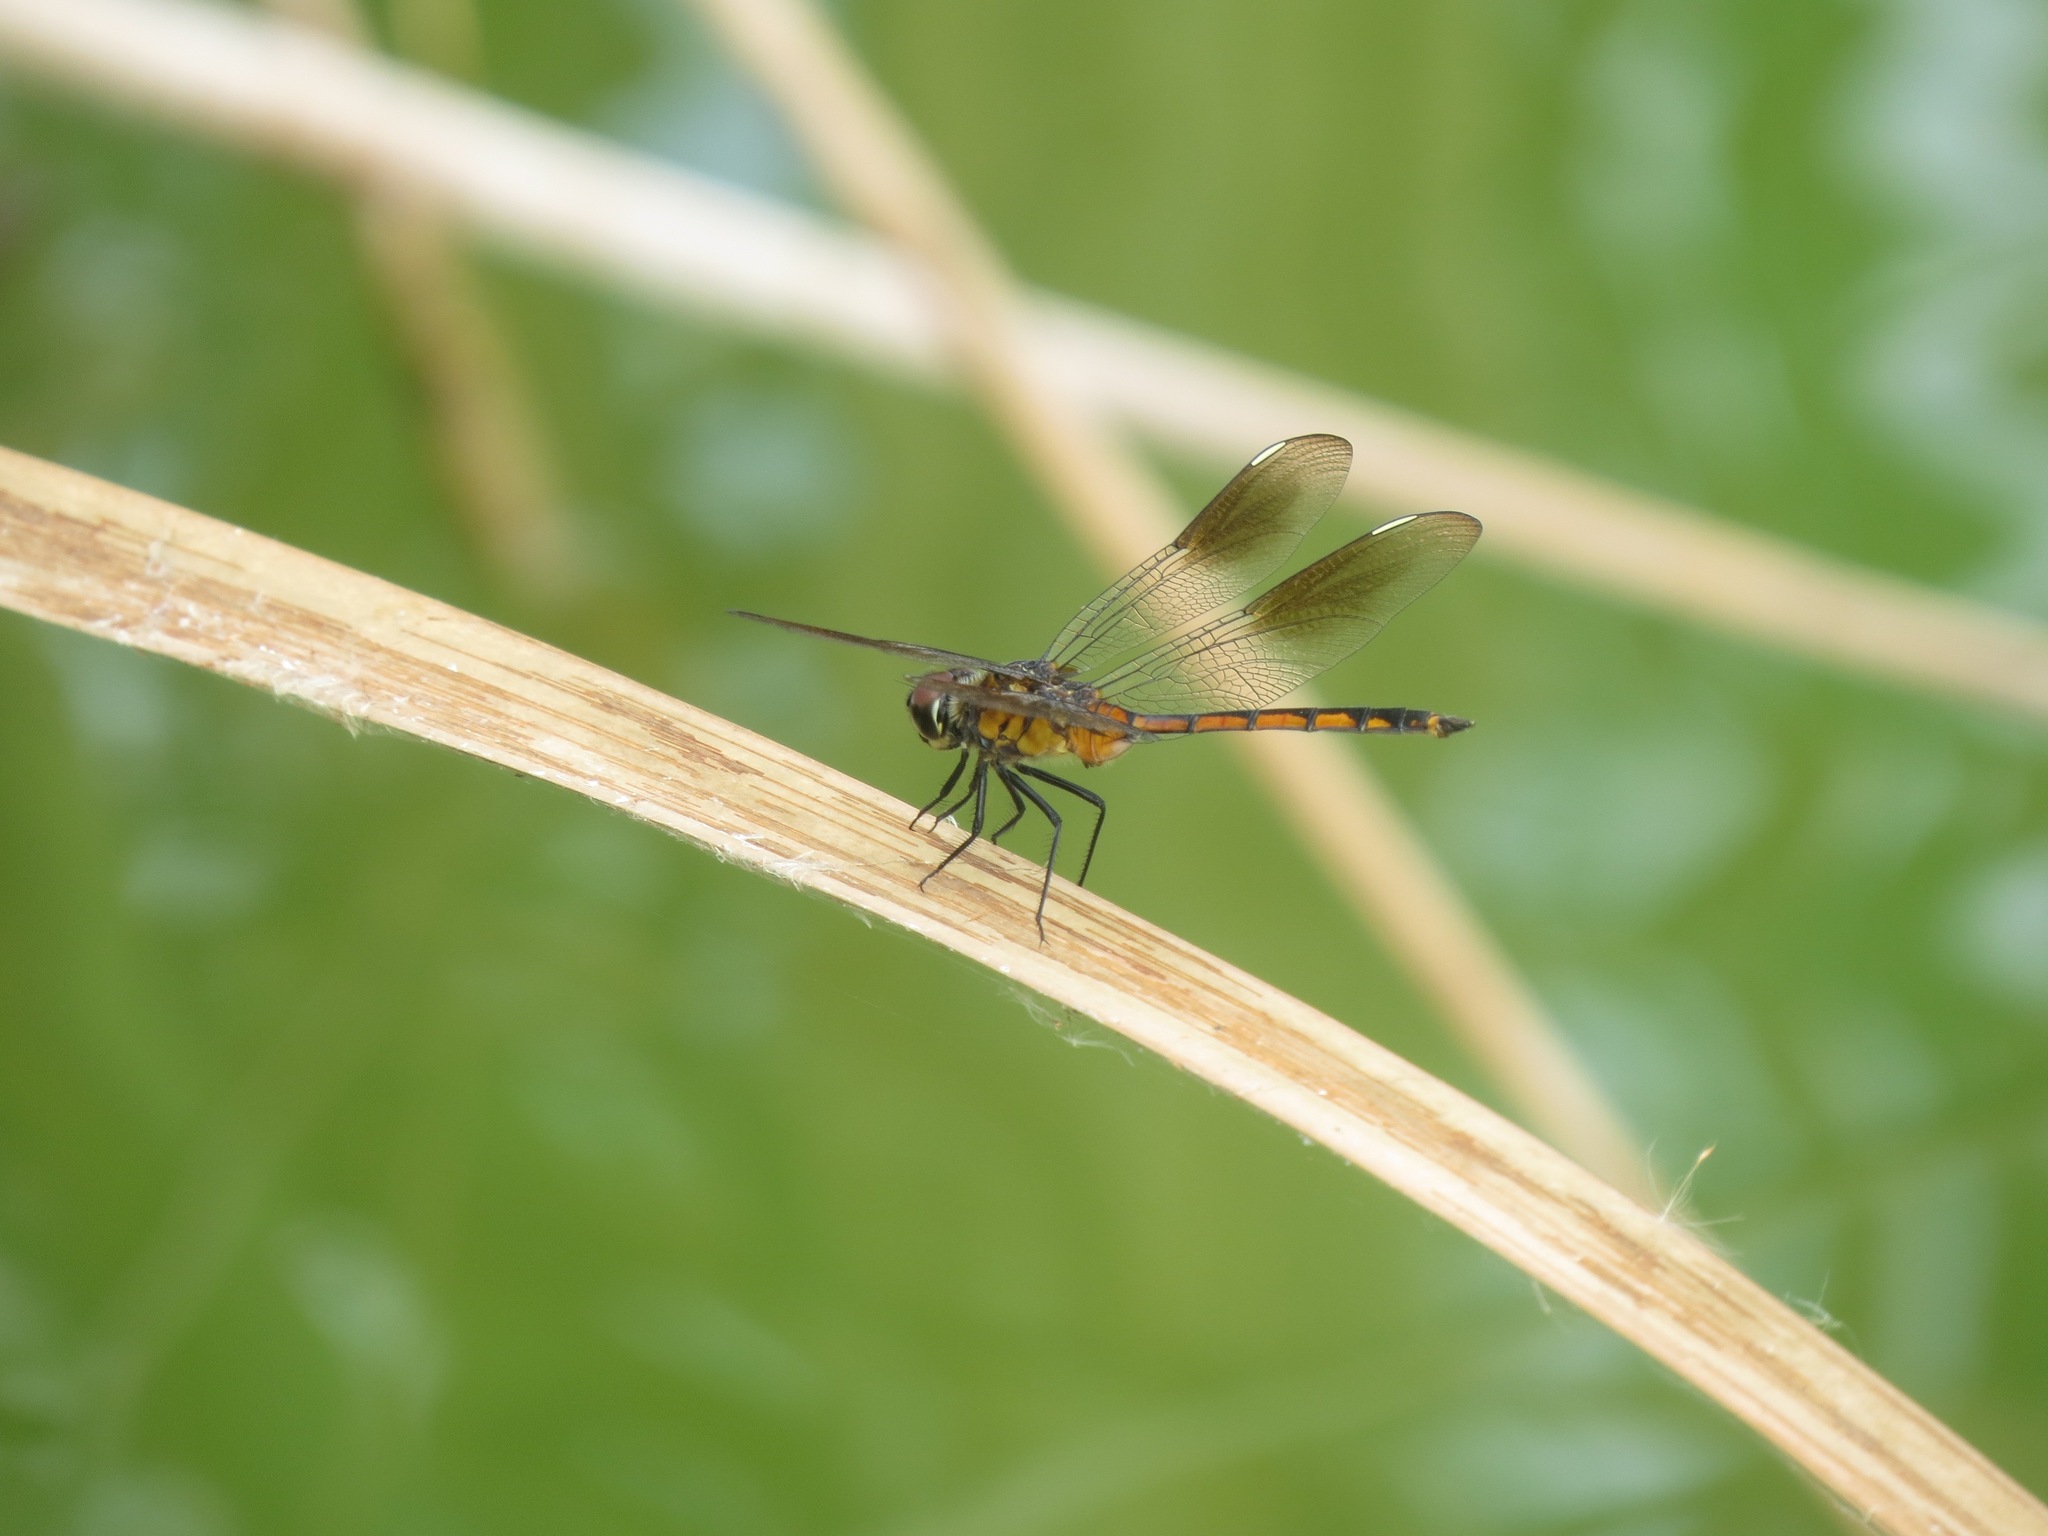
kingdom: Animalia
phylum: Arthropoda
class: Insecta
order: Odonata
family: Libellulidae
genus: Brachymesia
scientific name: Brachymesia gravida
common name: Four-spotted pennant
